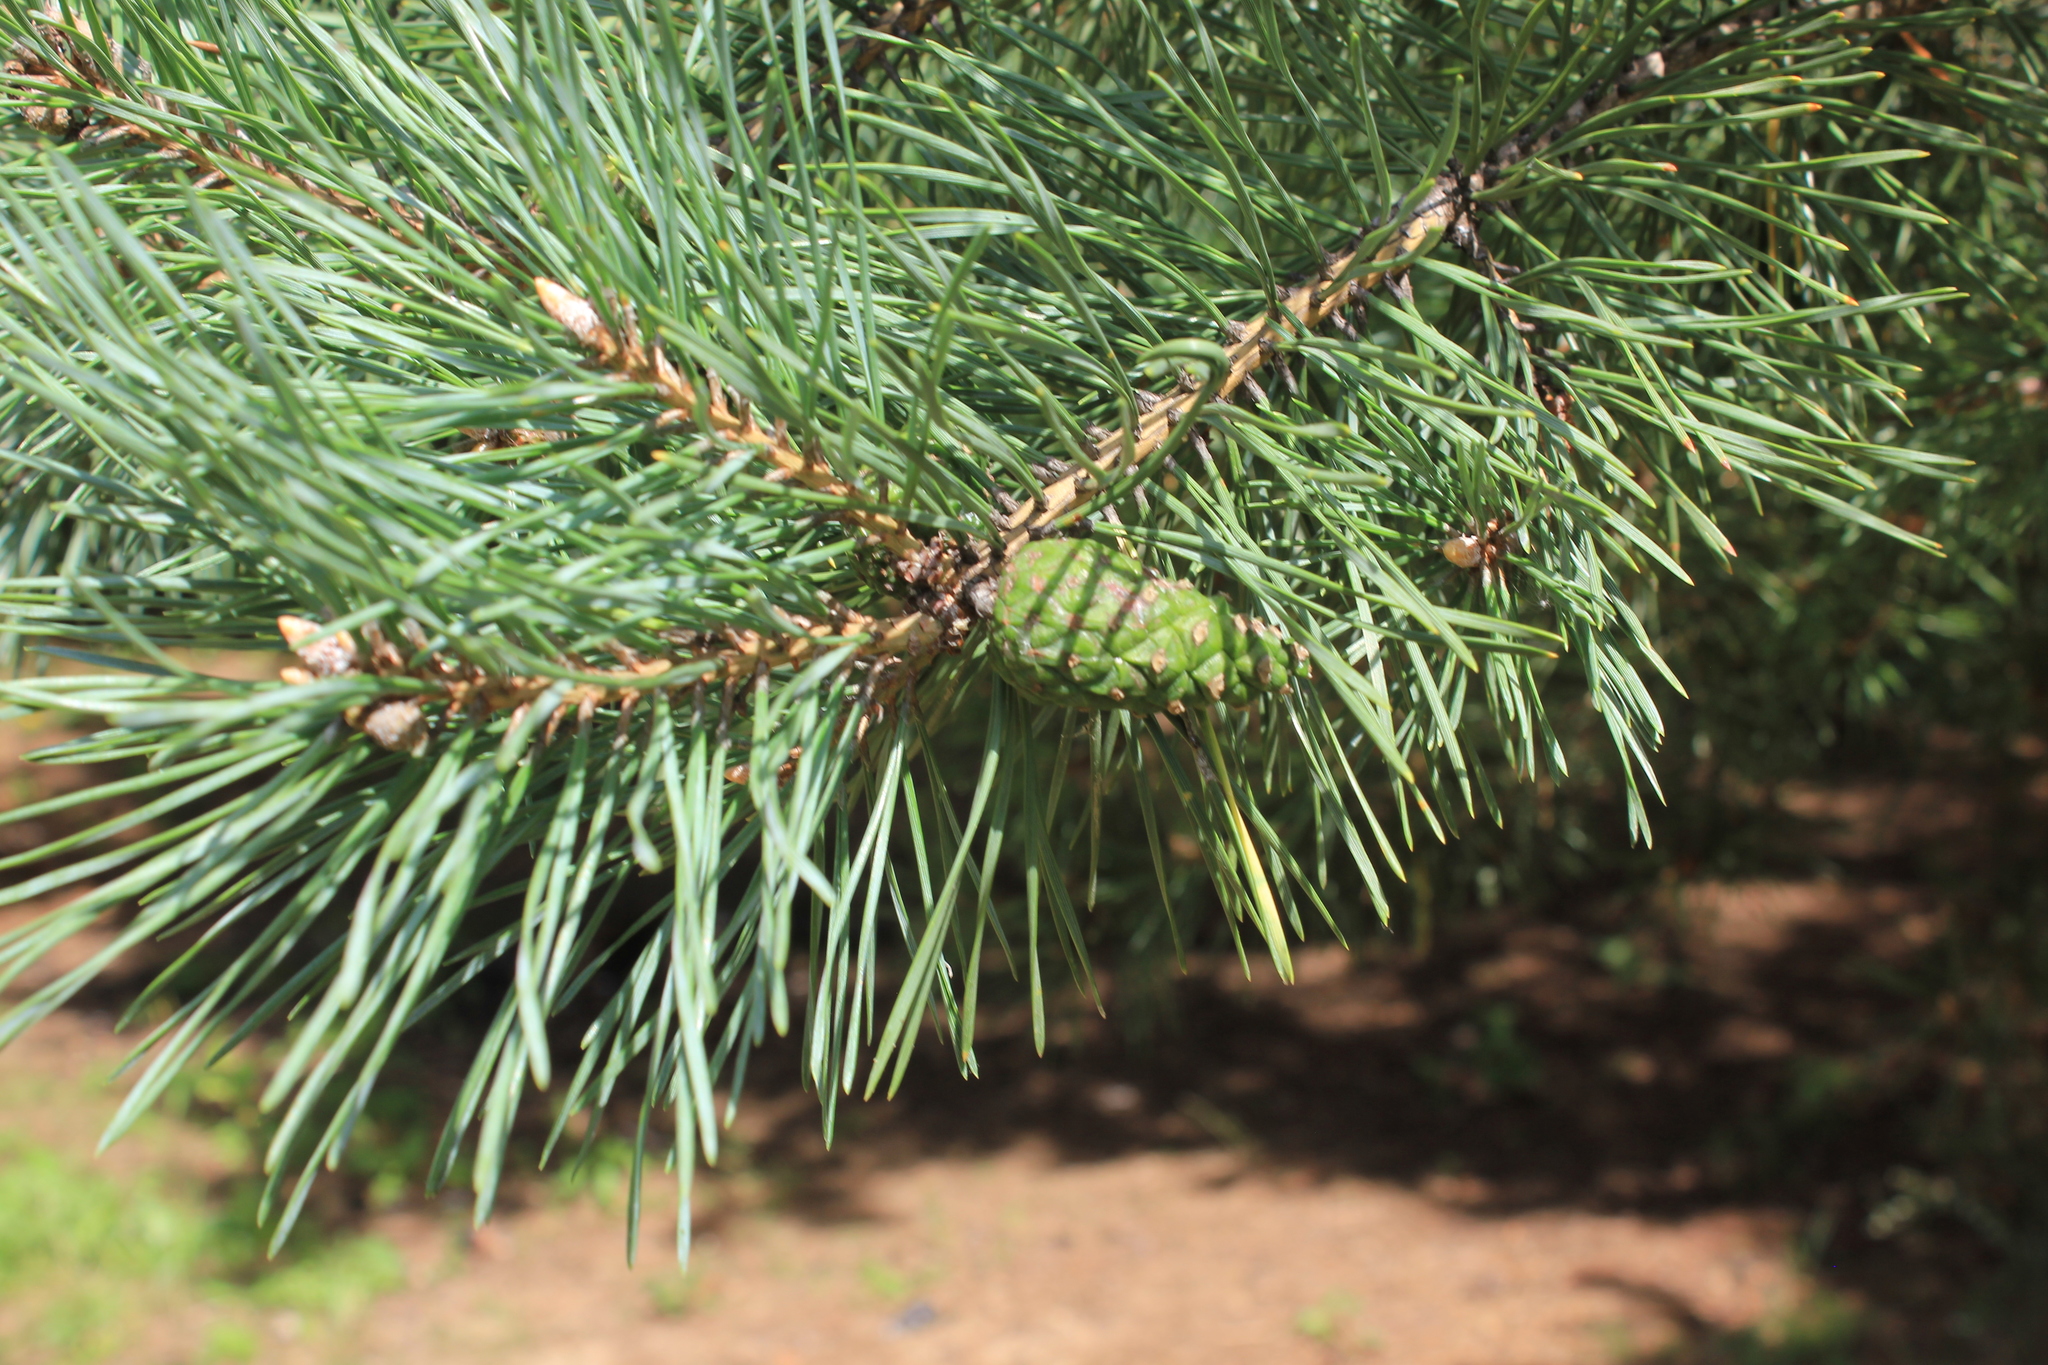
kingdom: Plantae
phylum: Tracheophyta
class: Pinopsida
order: Pinales
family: Pinaceae
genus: Pinus
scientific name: Pinus sylvestris
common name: Scots pine
